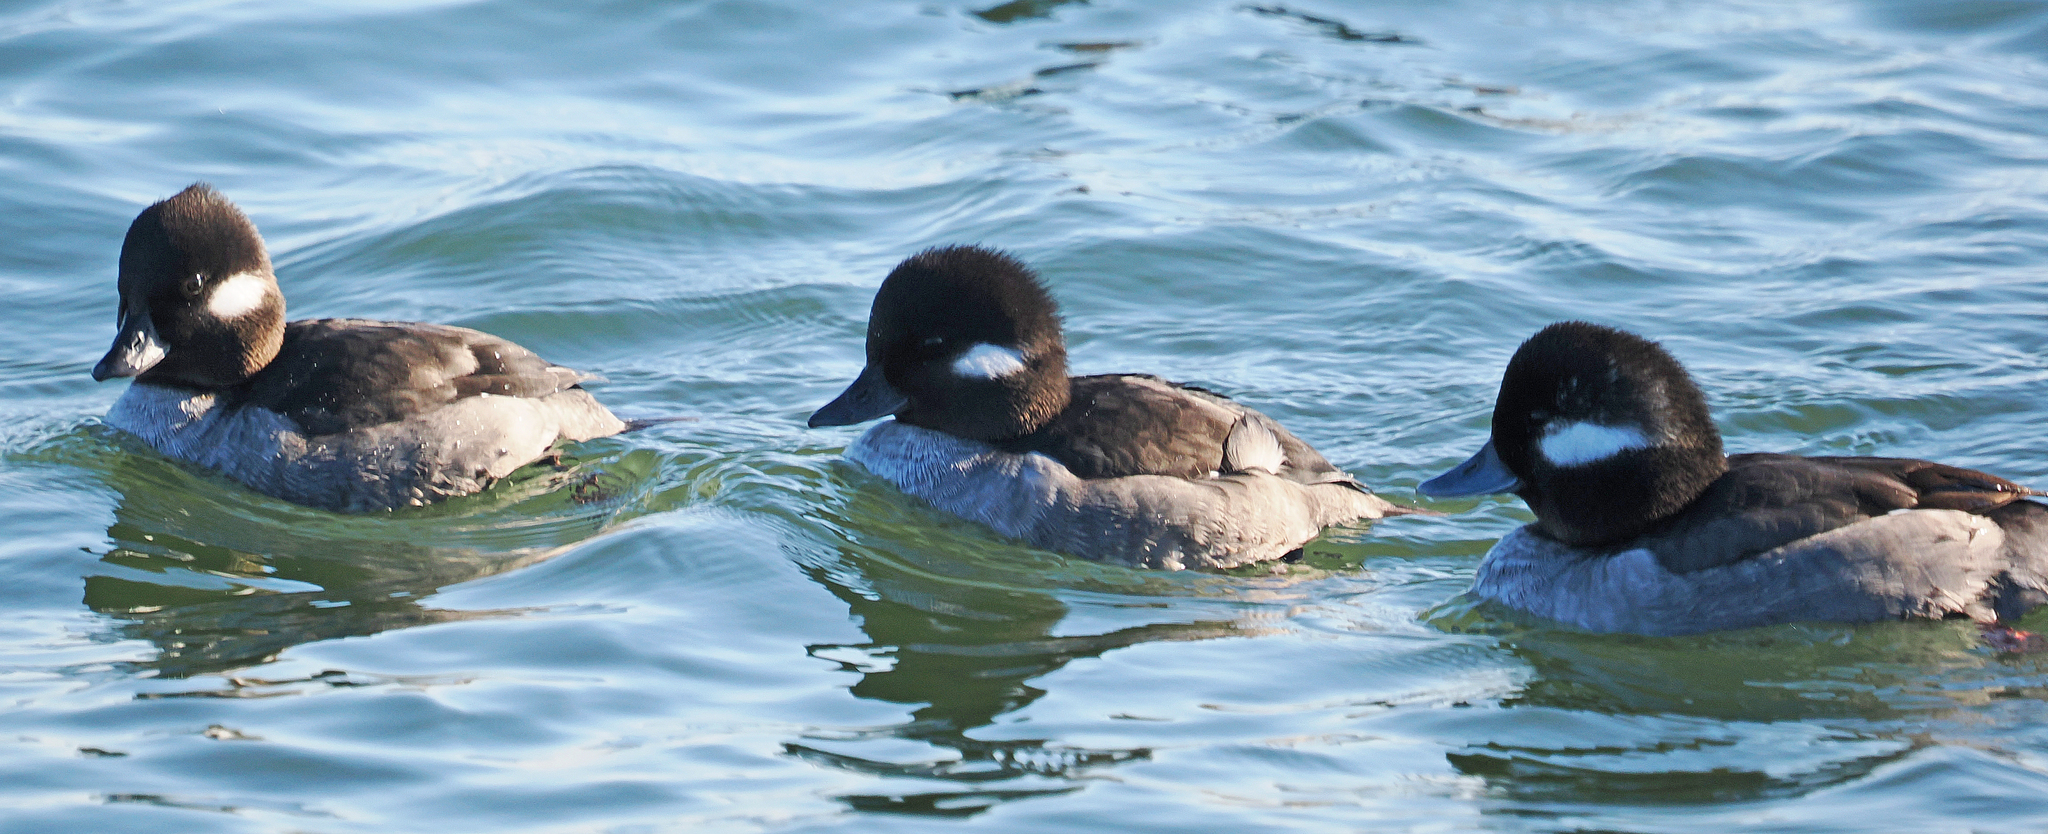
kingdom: Animalia
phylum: Chordata
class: Aves
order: Anseriformes
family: Anatidae
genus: Bucephala
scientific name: Bucephala albeola
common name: Bufflehead
